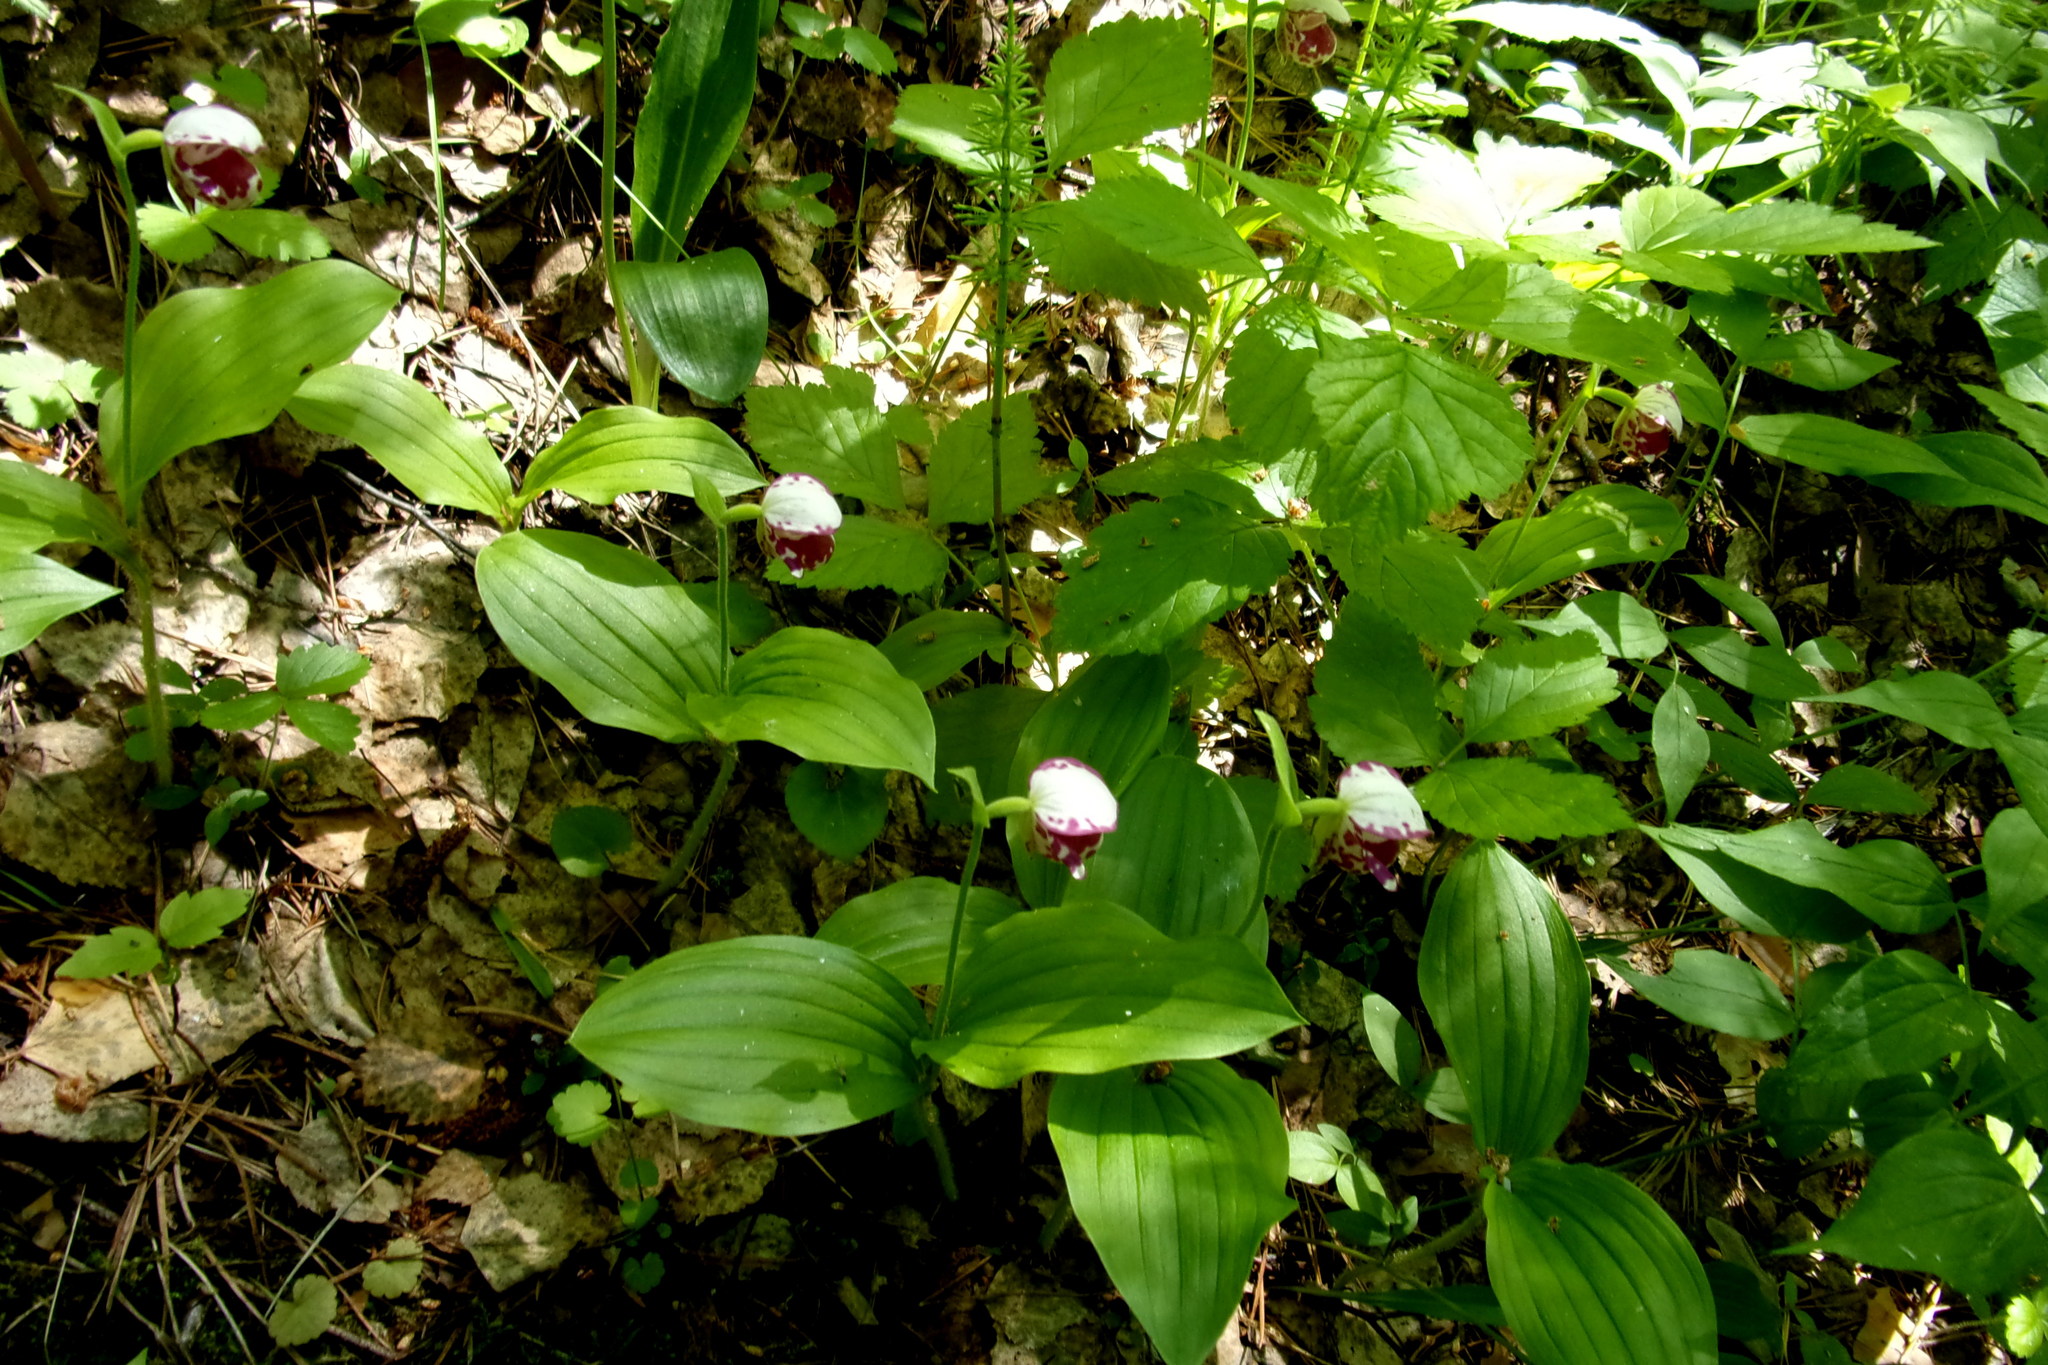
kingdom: Plantae
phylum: Tracheophyta
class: Liliopsida
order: Asparagales
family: Orchidaceae
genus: Cypripedium
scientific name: Cypripedium guttatum
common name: Pink lady slipper
